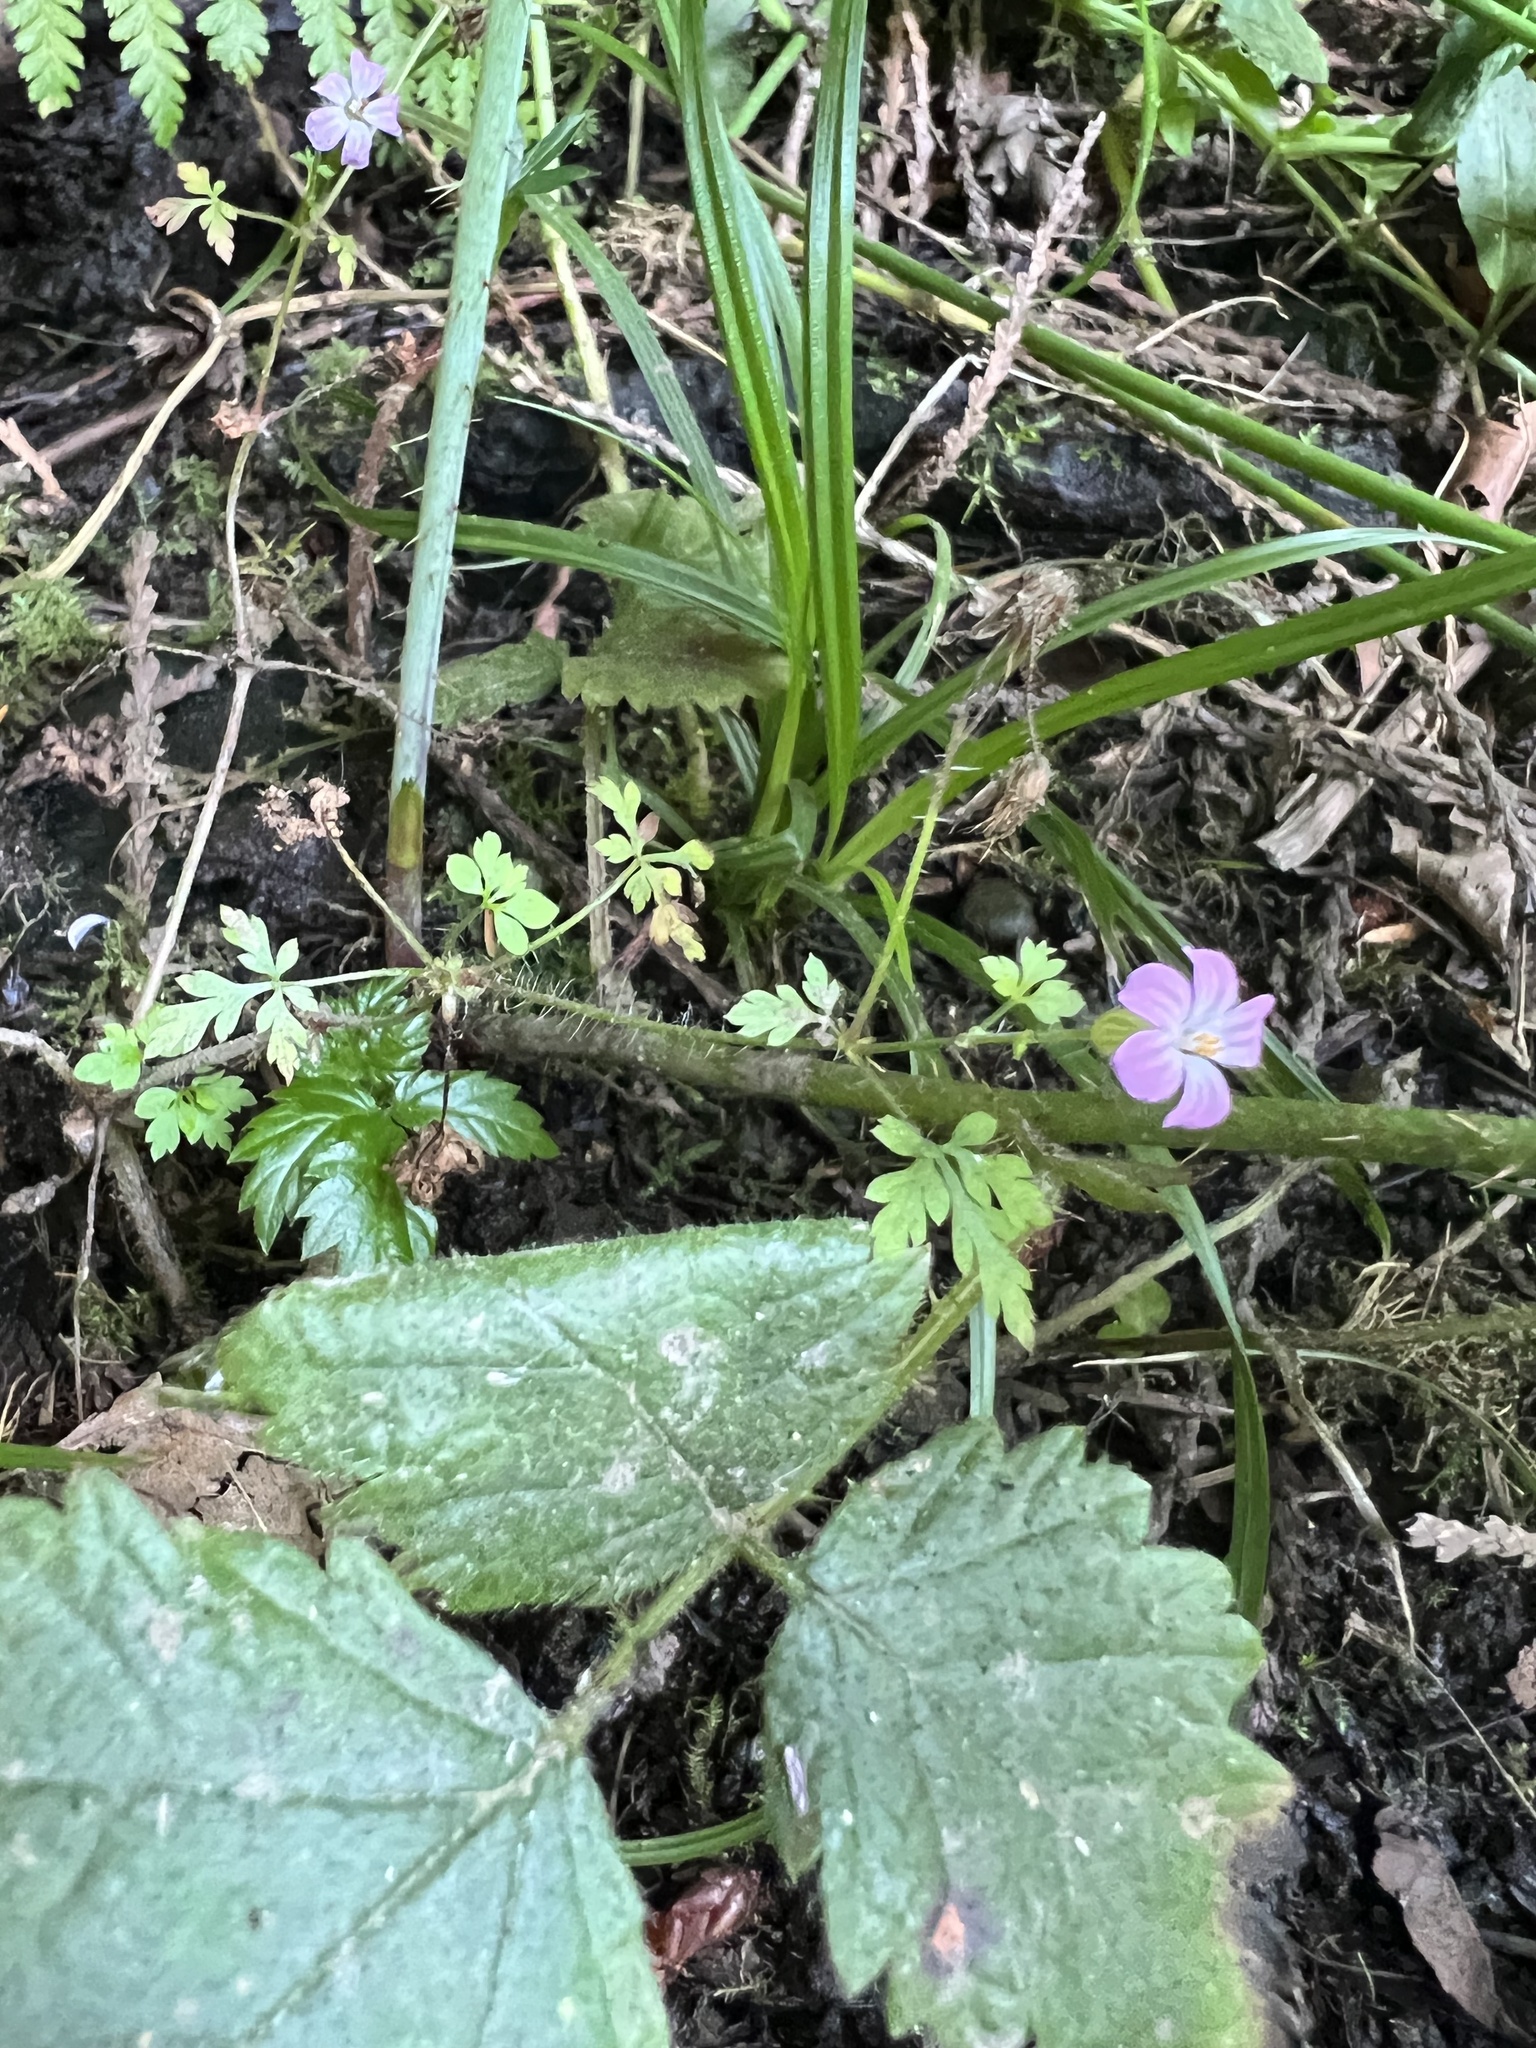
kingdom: Plantae
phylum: Tracheophyta
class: Magnoliopsida
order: Geraniales
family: Geraniaceae
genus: Geranium
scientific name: Geranium robertianum
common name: Herb-robert
